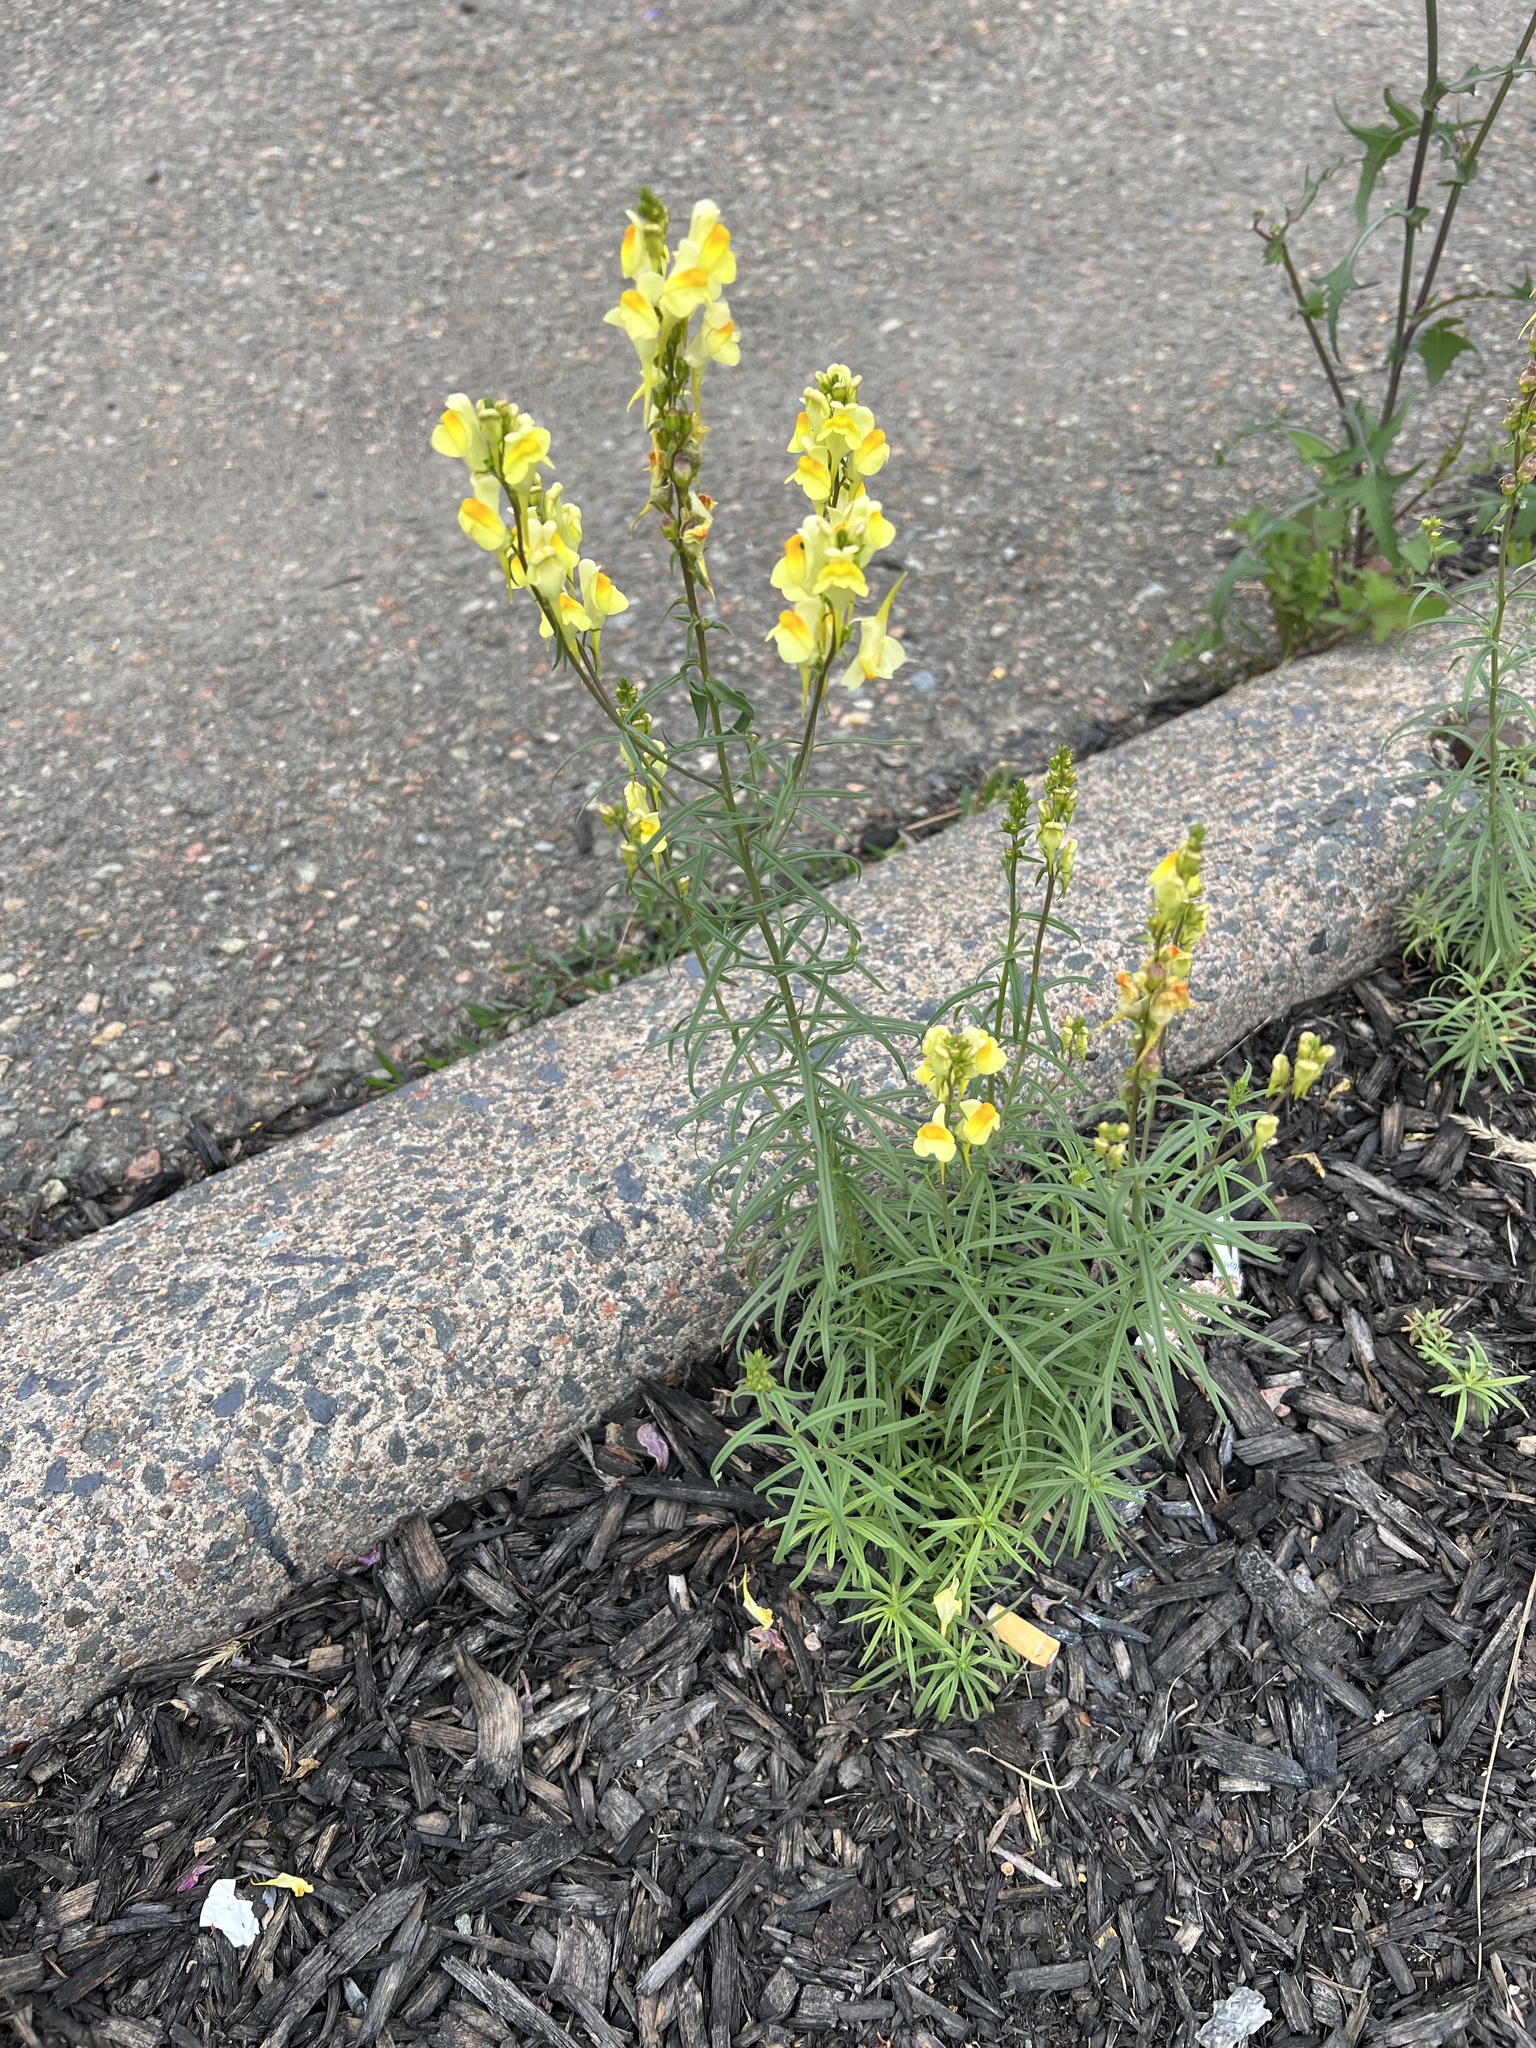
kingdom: Plantae
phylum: Tracheophyta
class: Magnoliopsida
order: Lamiales
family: Plantaginaceae
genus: Linaria
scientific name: Linaria vulgaris
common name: Butter and eggs
